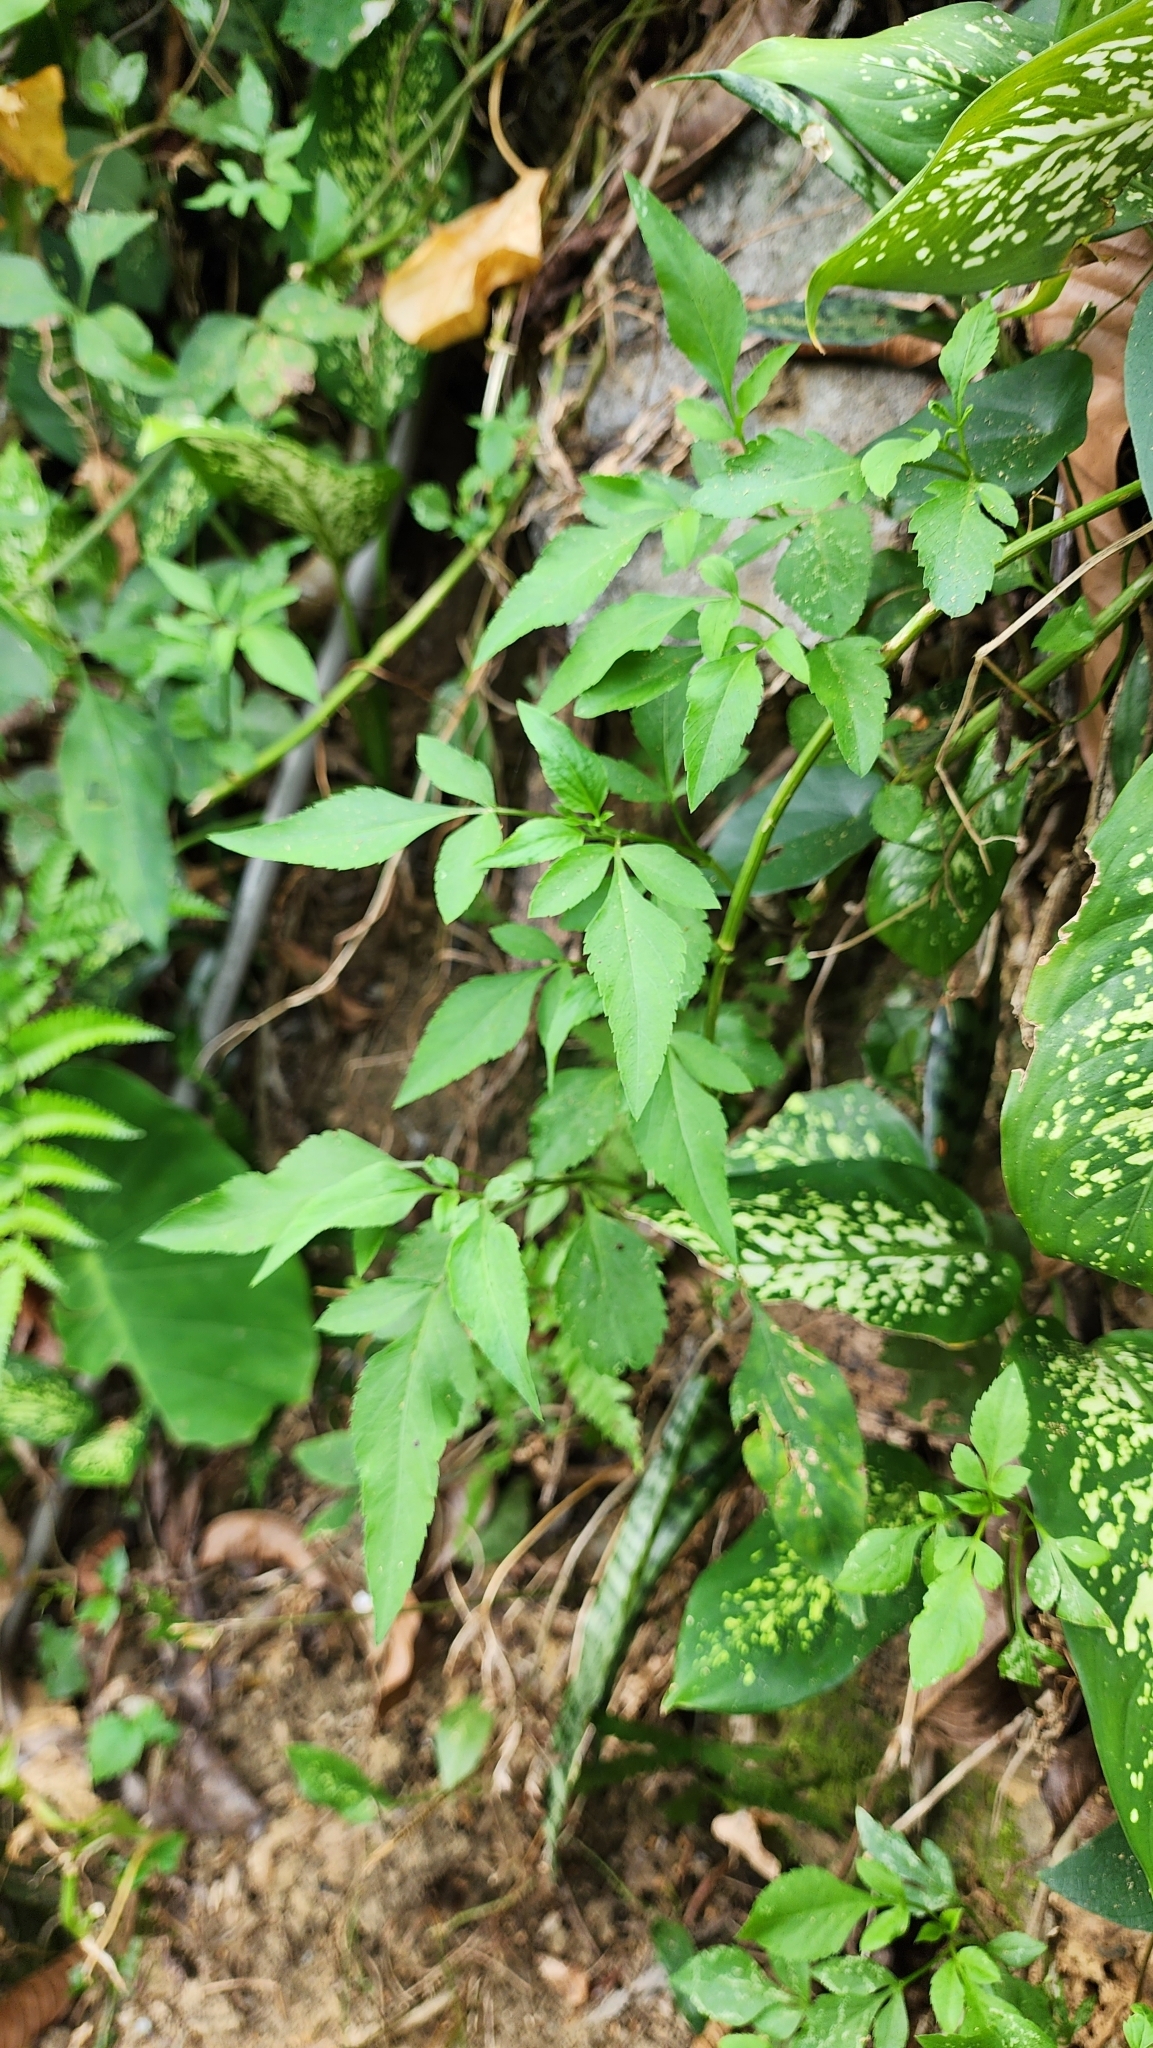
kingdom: Plantae
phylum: Tracheophyta
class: Magnoliopsida
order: Asterales
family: Asteraceae
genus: Bidens
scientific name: Bidens alba
